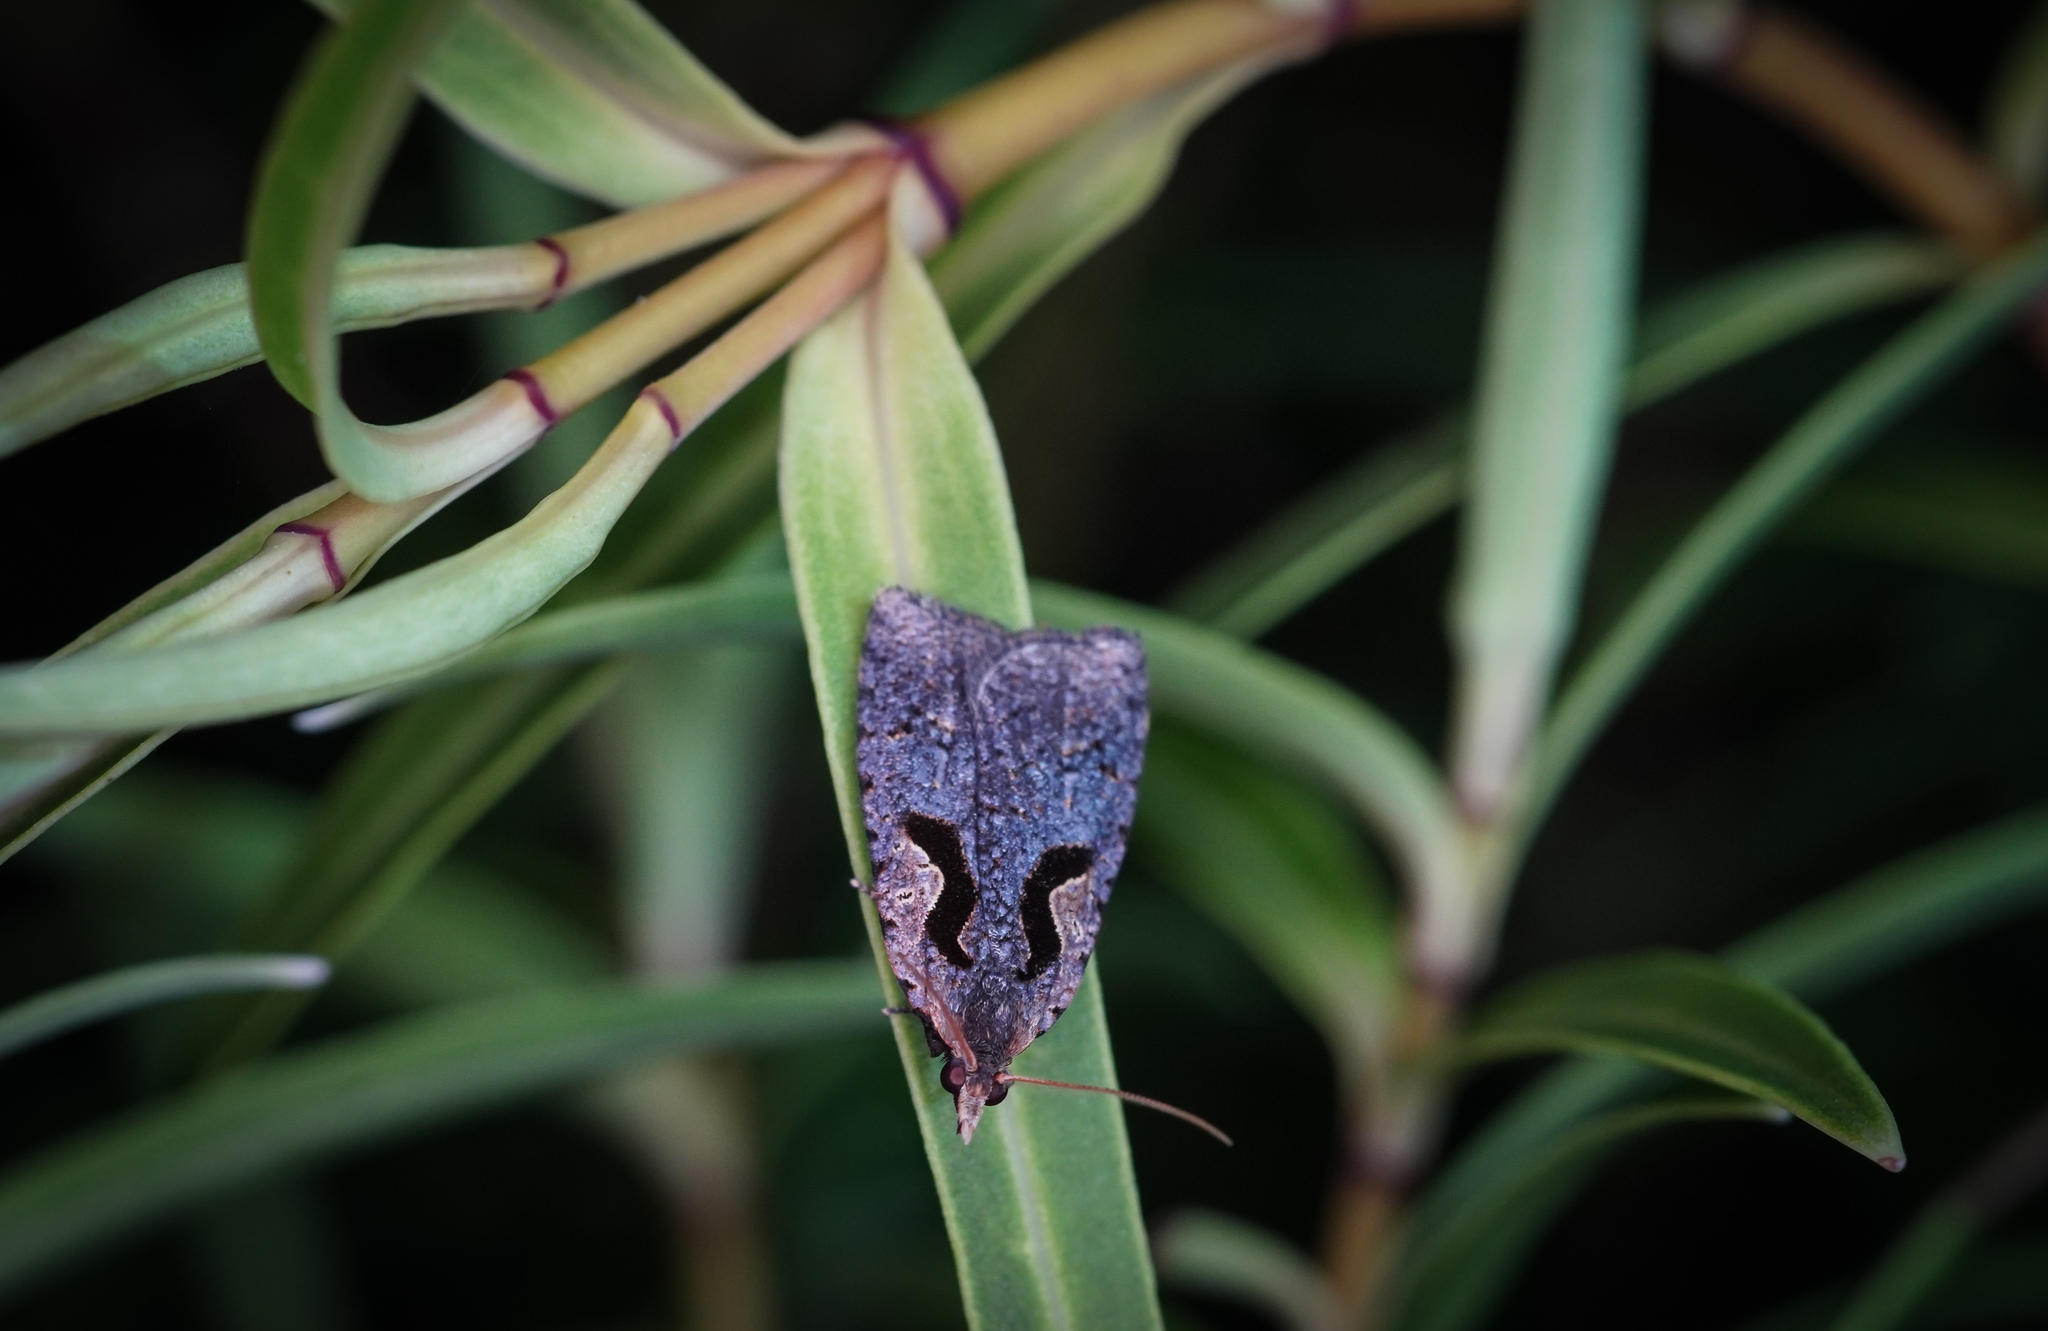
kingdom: Animalia
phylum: Arthropoda
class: Insecta
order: Lepidoptera
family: Tortricidae
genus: Cnephasia
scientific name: Cnephasia jactatana
